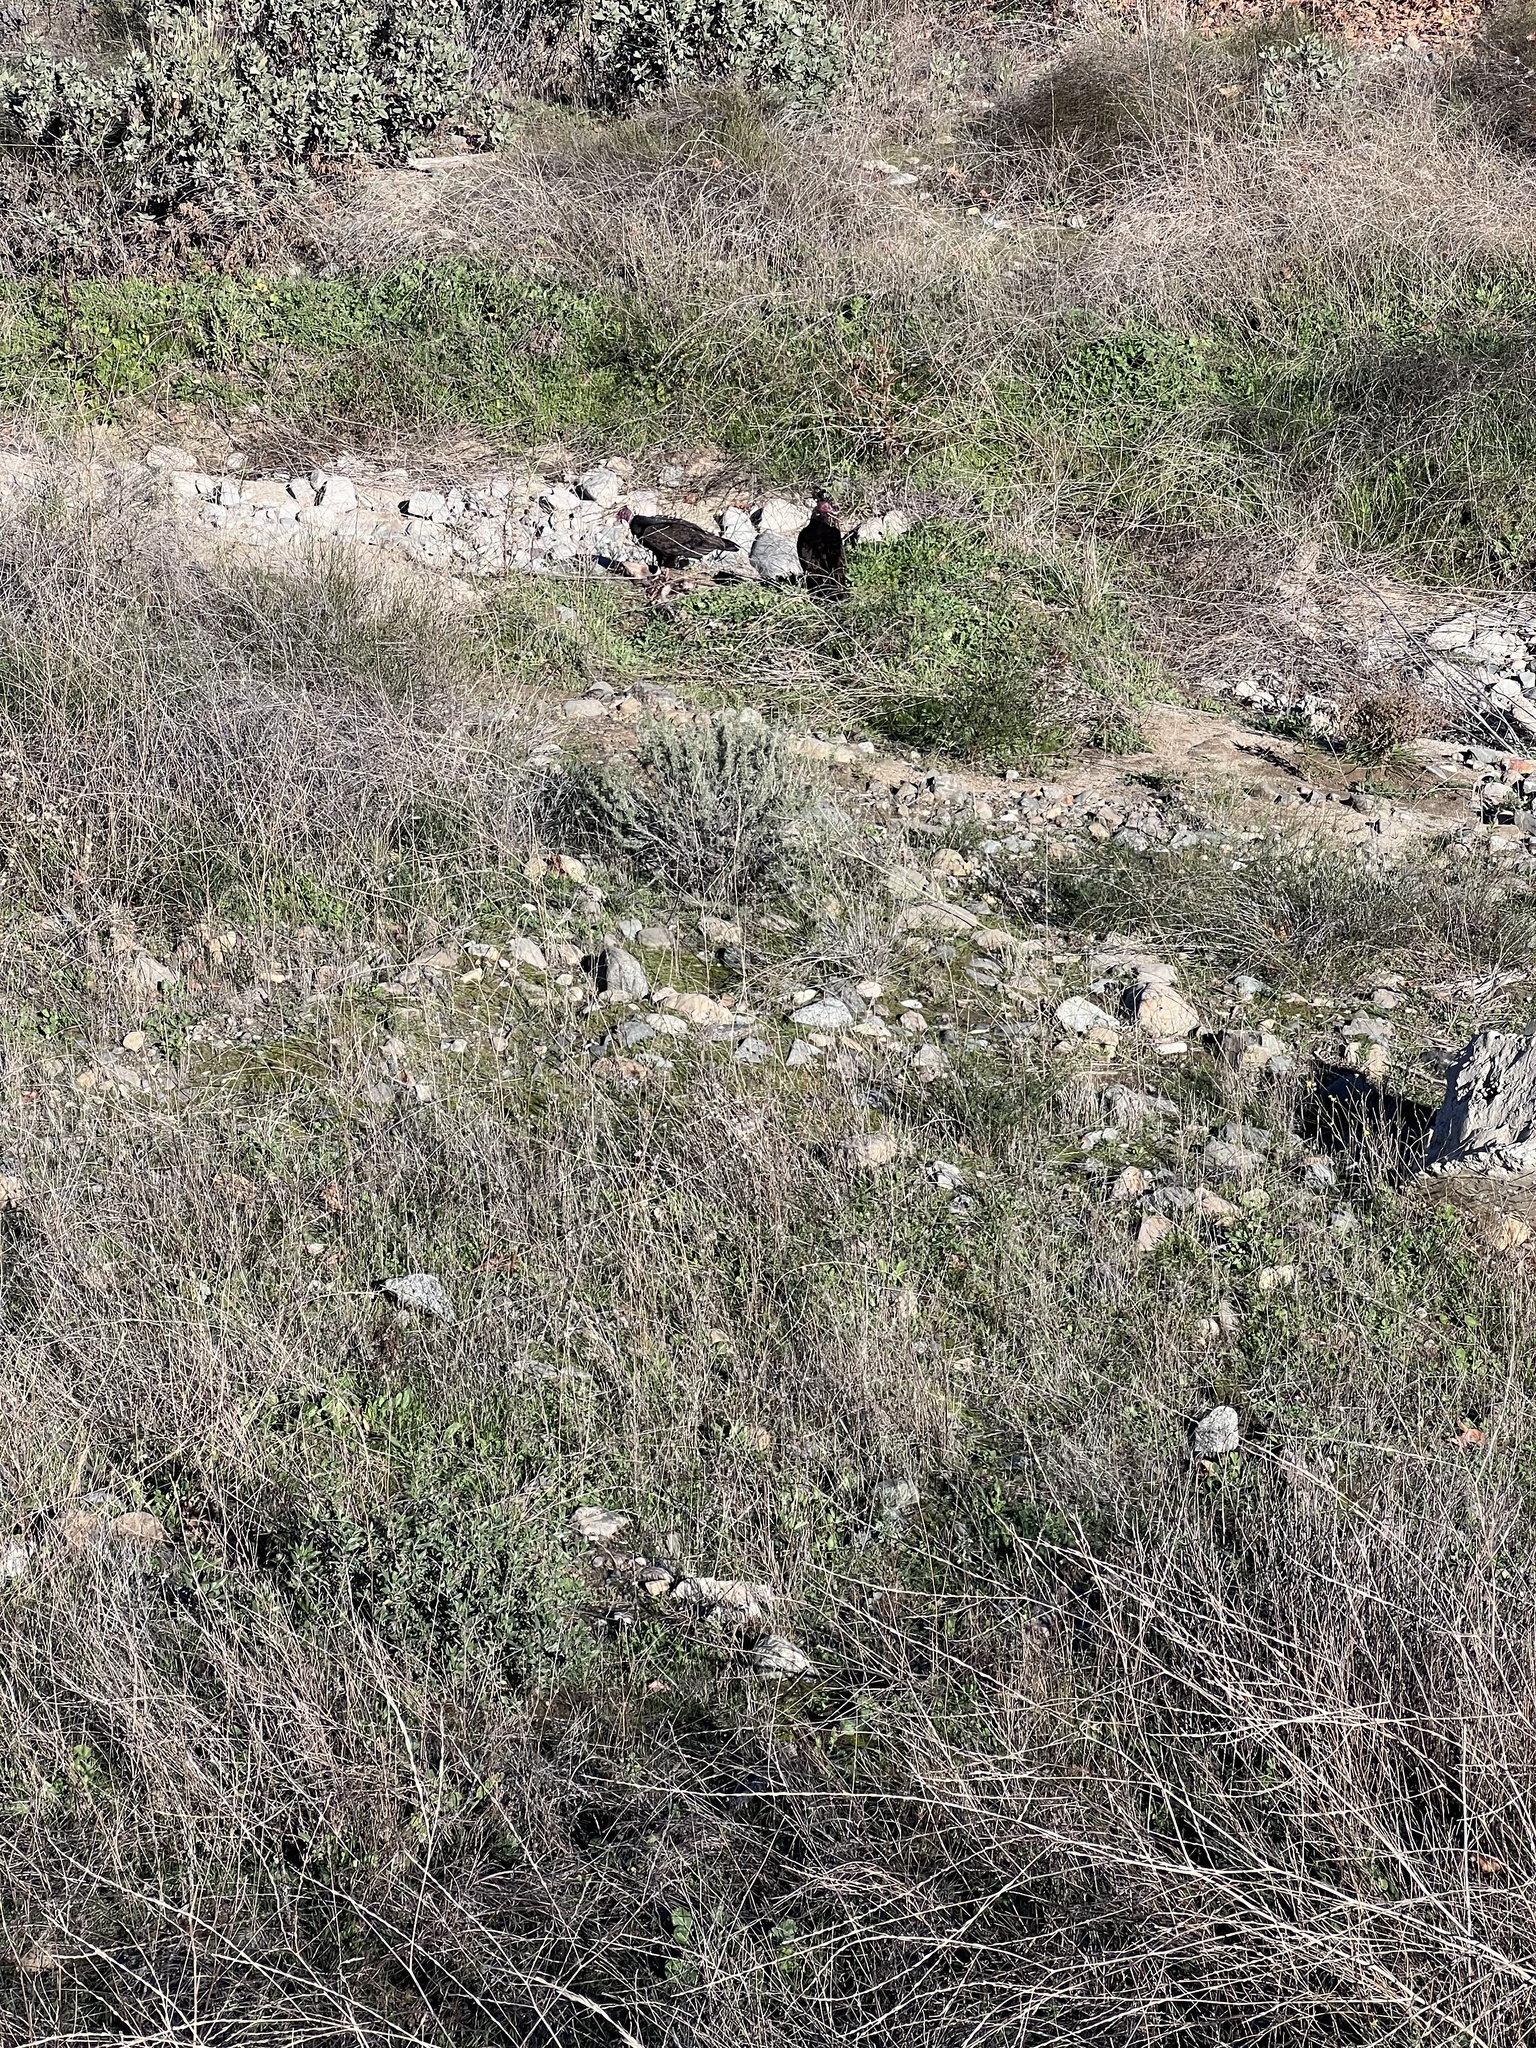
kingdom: Animalia
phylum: Chordata
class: Aves
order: Accipitriformes
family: Cathartidae
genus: Cathartes
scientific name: Cathartes aura
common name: Turkey vulture
